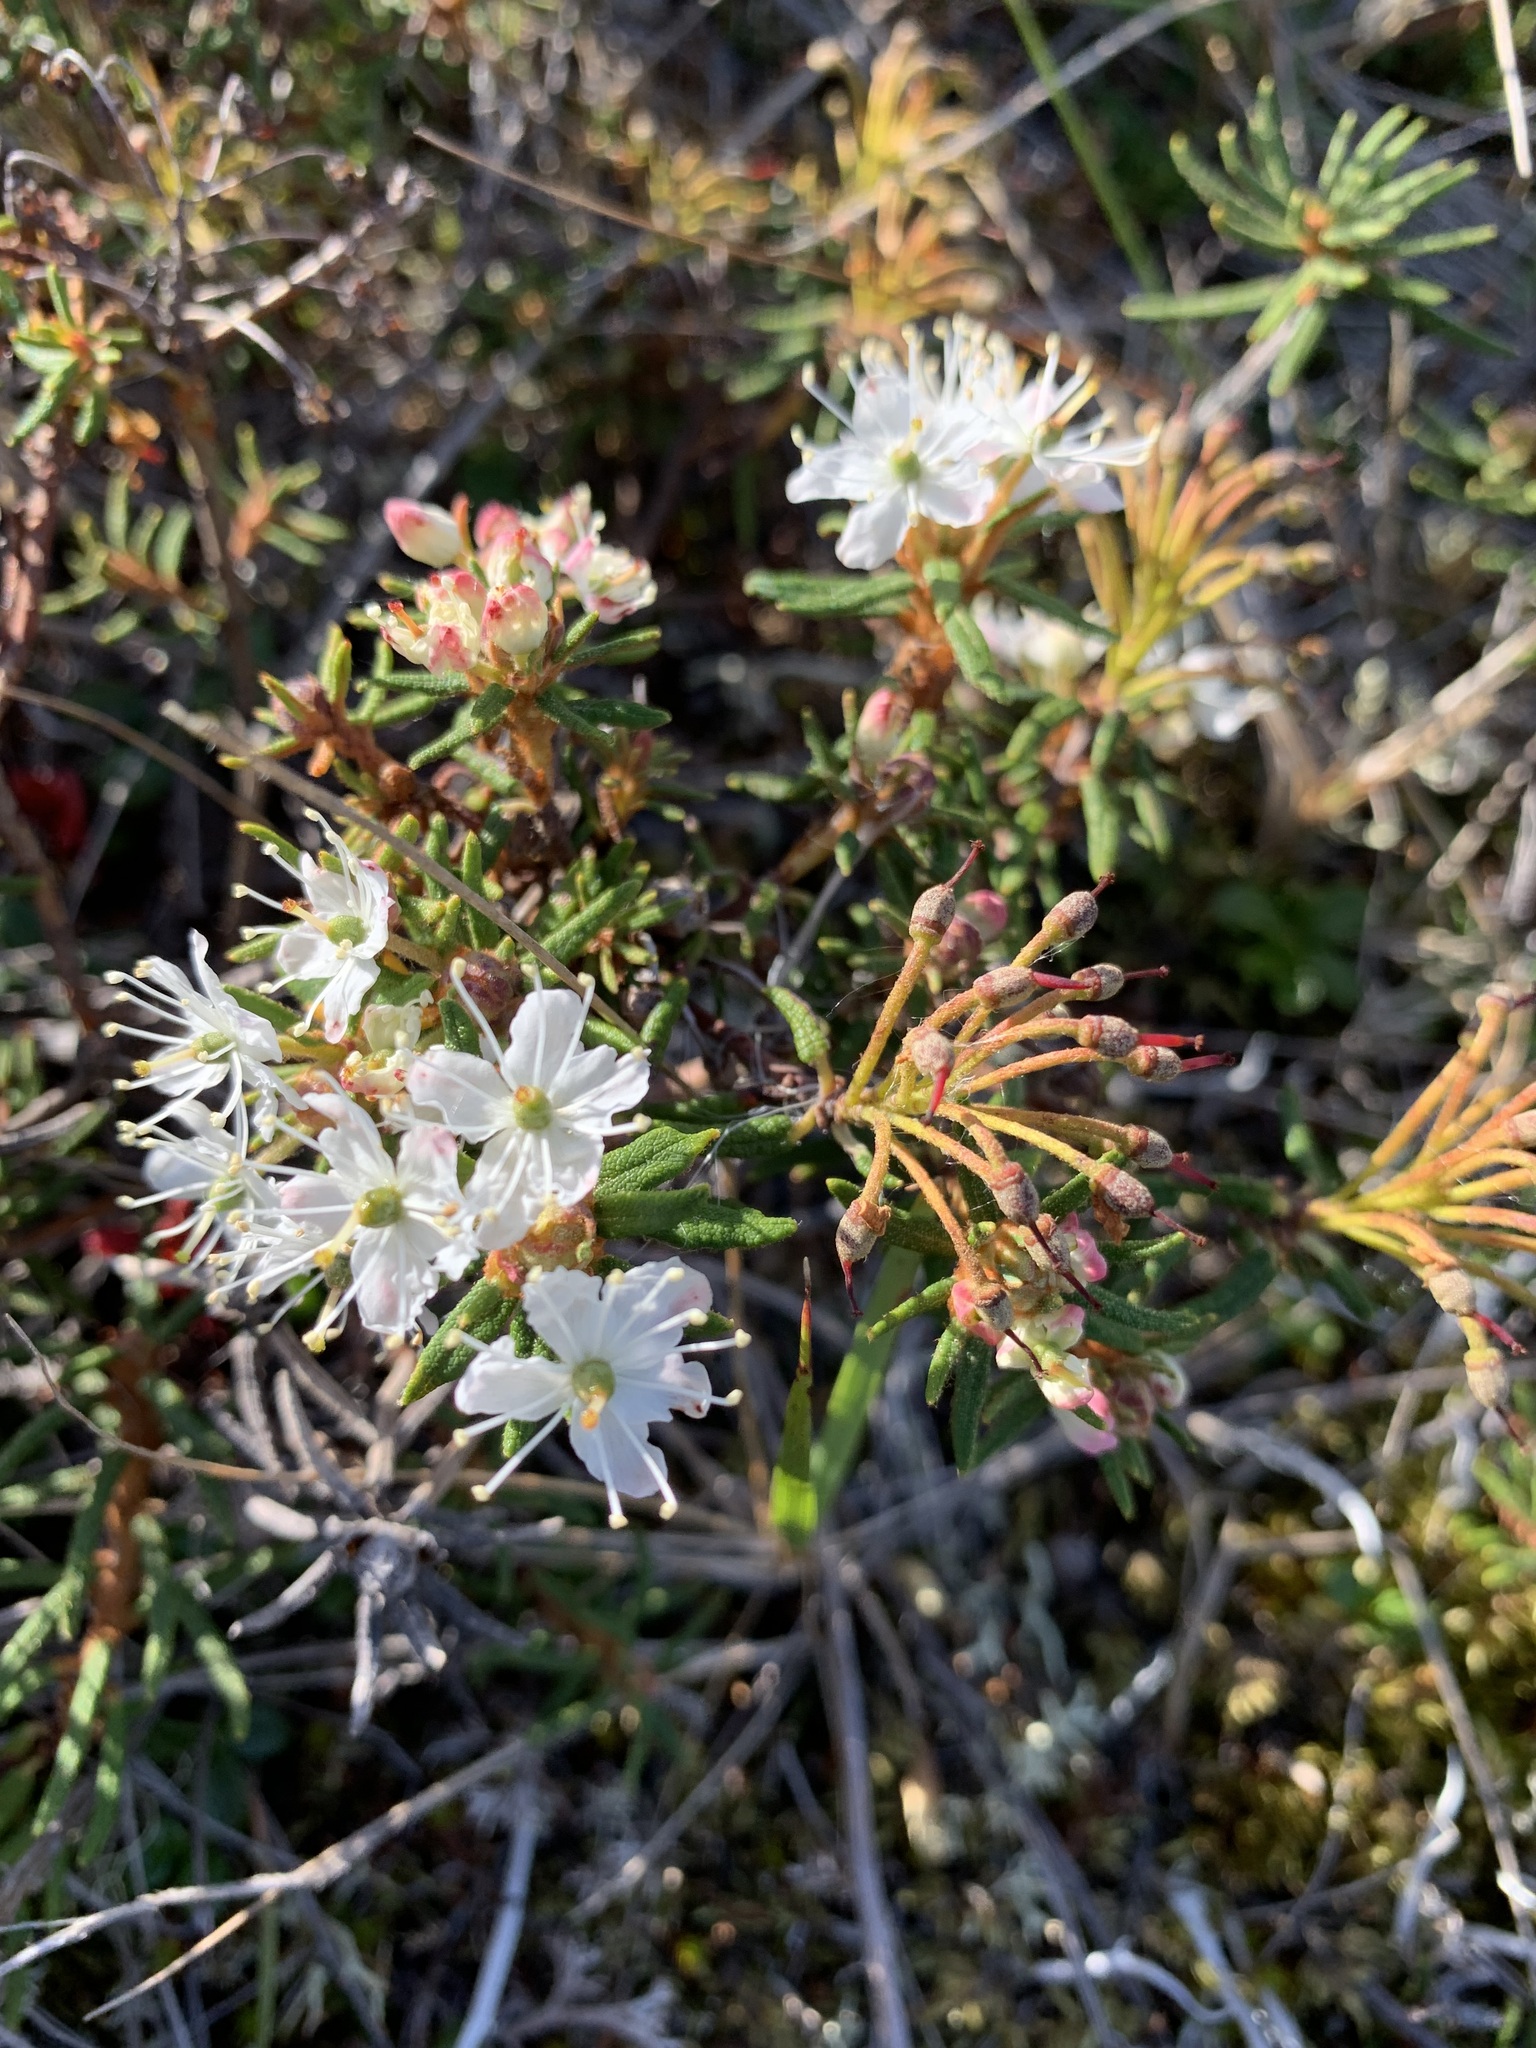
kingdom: Plantae
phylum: Tracheophyta
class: Magnoliopsida
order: Ericales
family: Ericaceae
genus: Rhododendron
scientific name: Rhododendron tomentosum
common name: Marsh labrador tea
